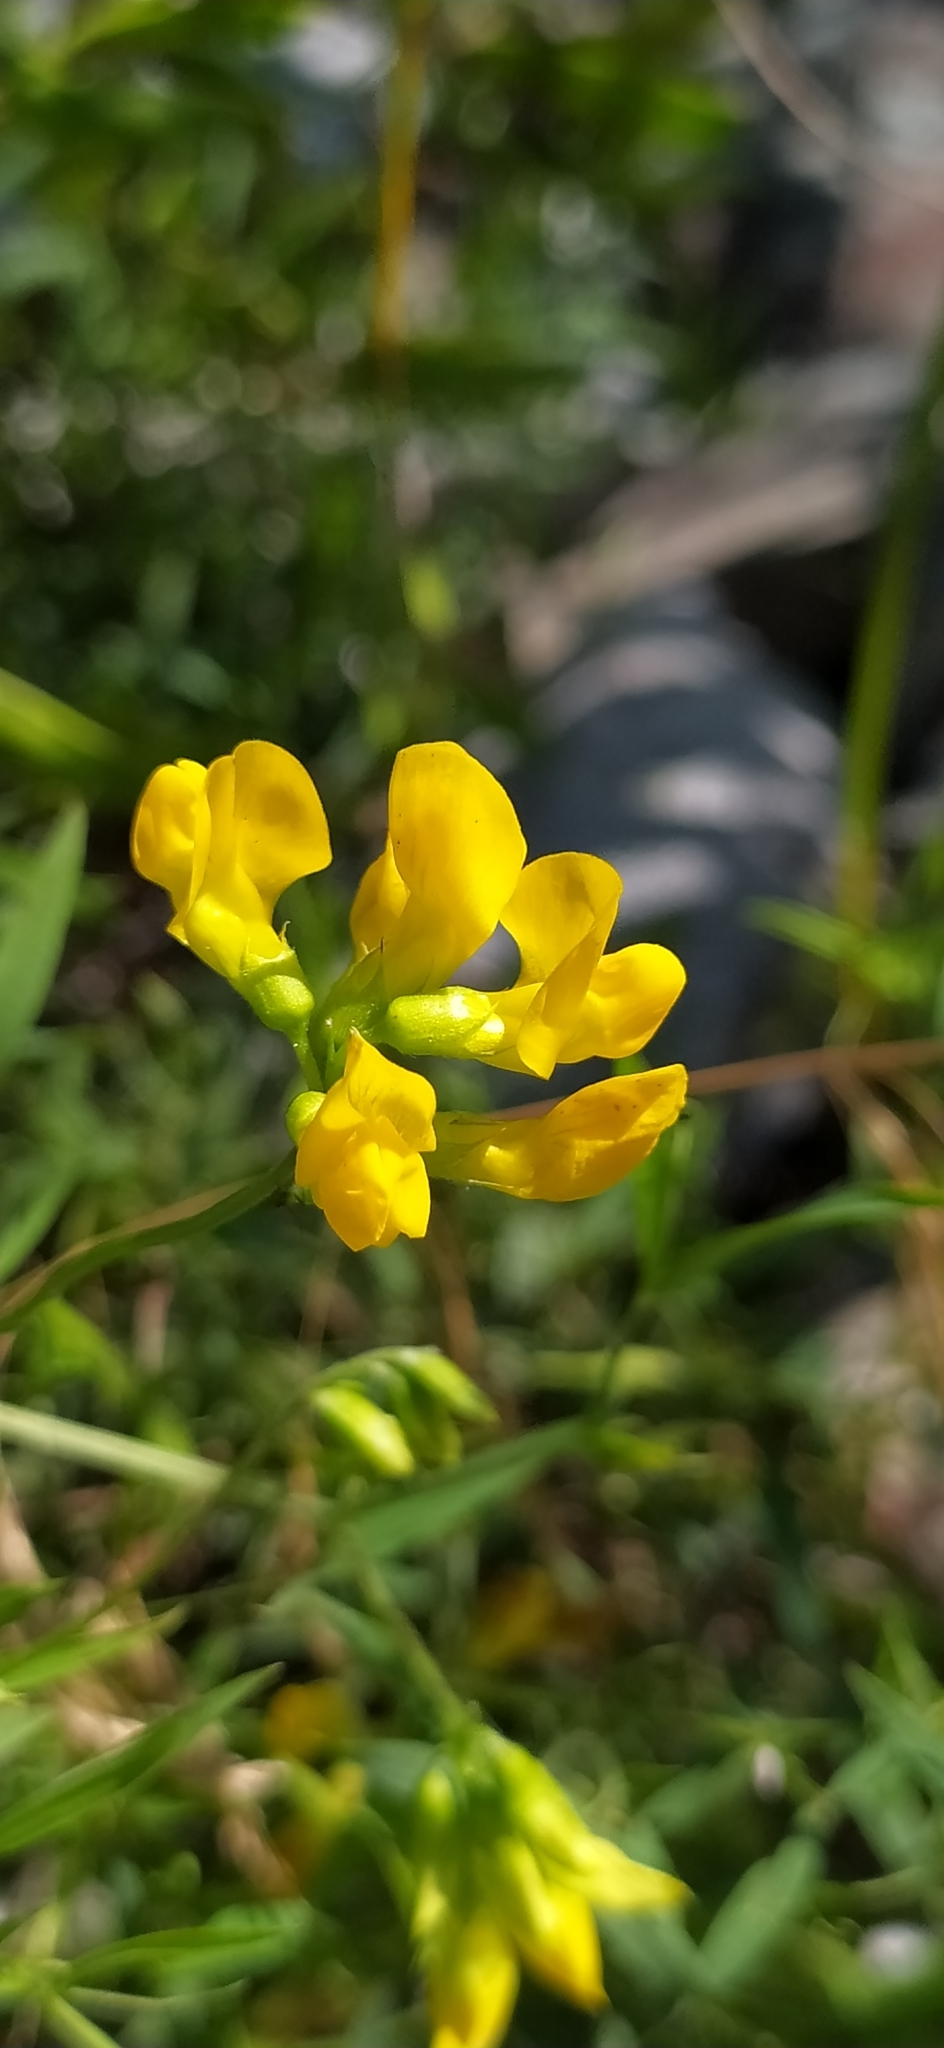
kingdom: Plantae
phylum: Tracheophyta
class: Magnoliopsida
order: Fabales
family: Fabaceae
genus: Lathyrus
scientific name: Lathyrus pratensis
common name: Meadow vetchling
